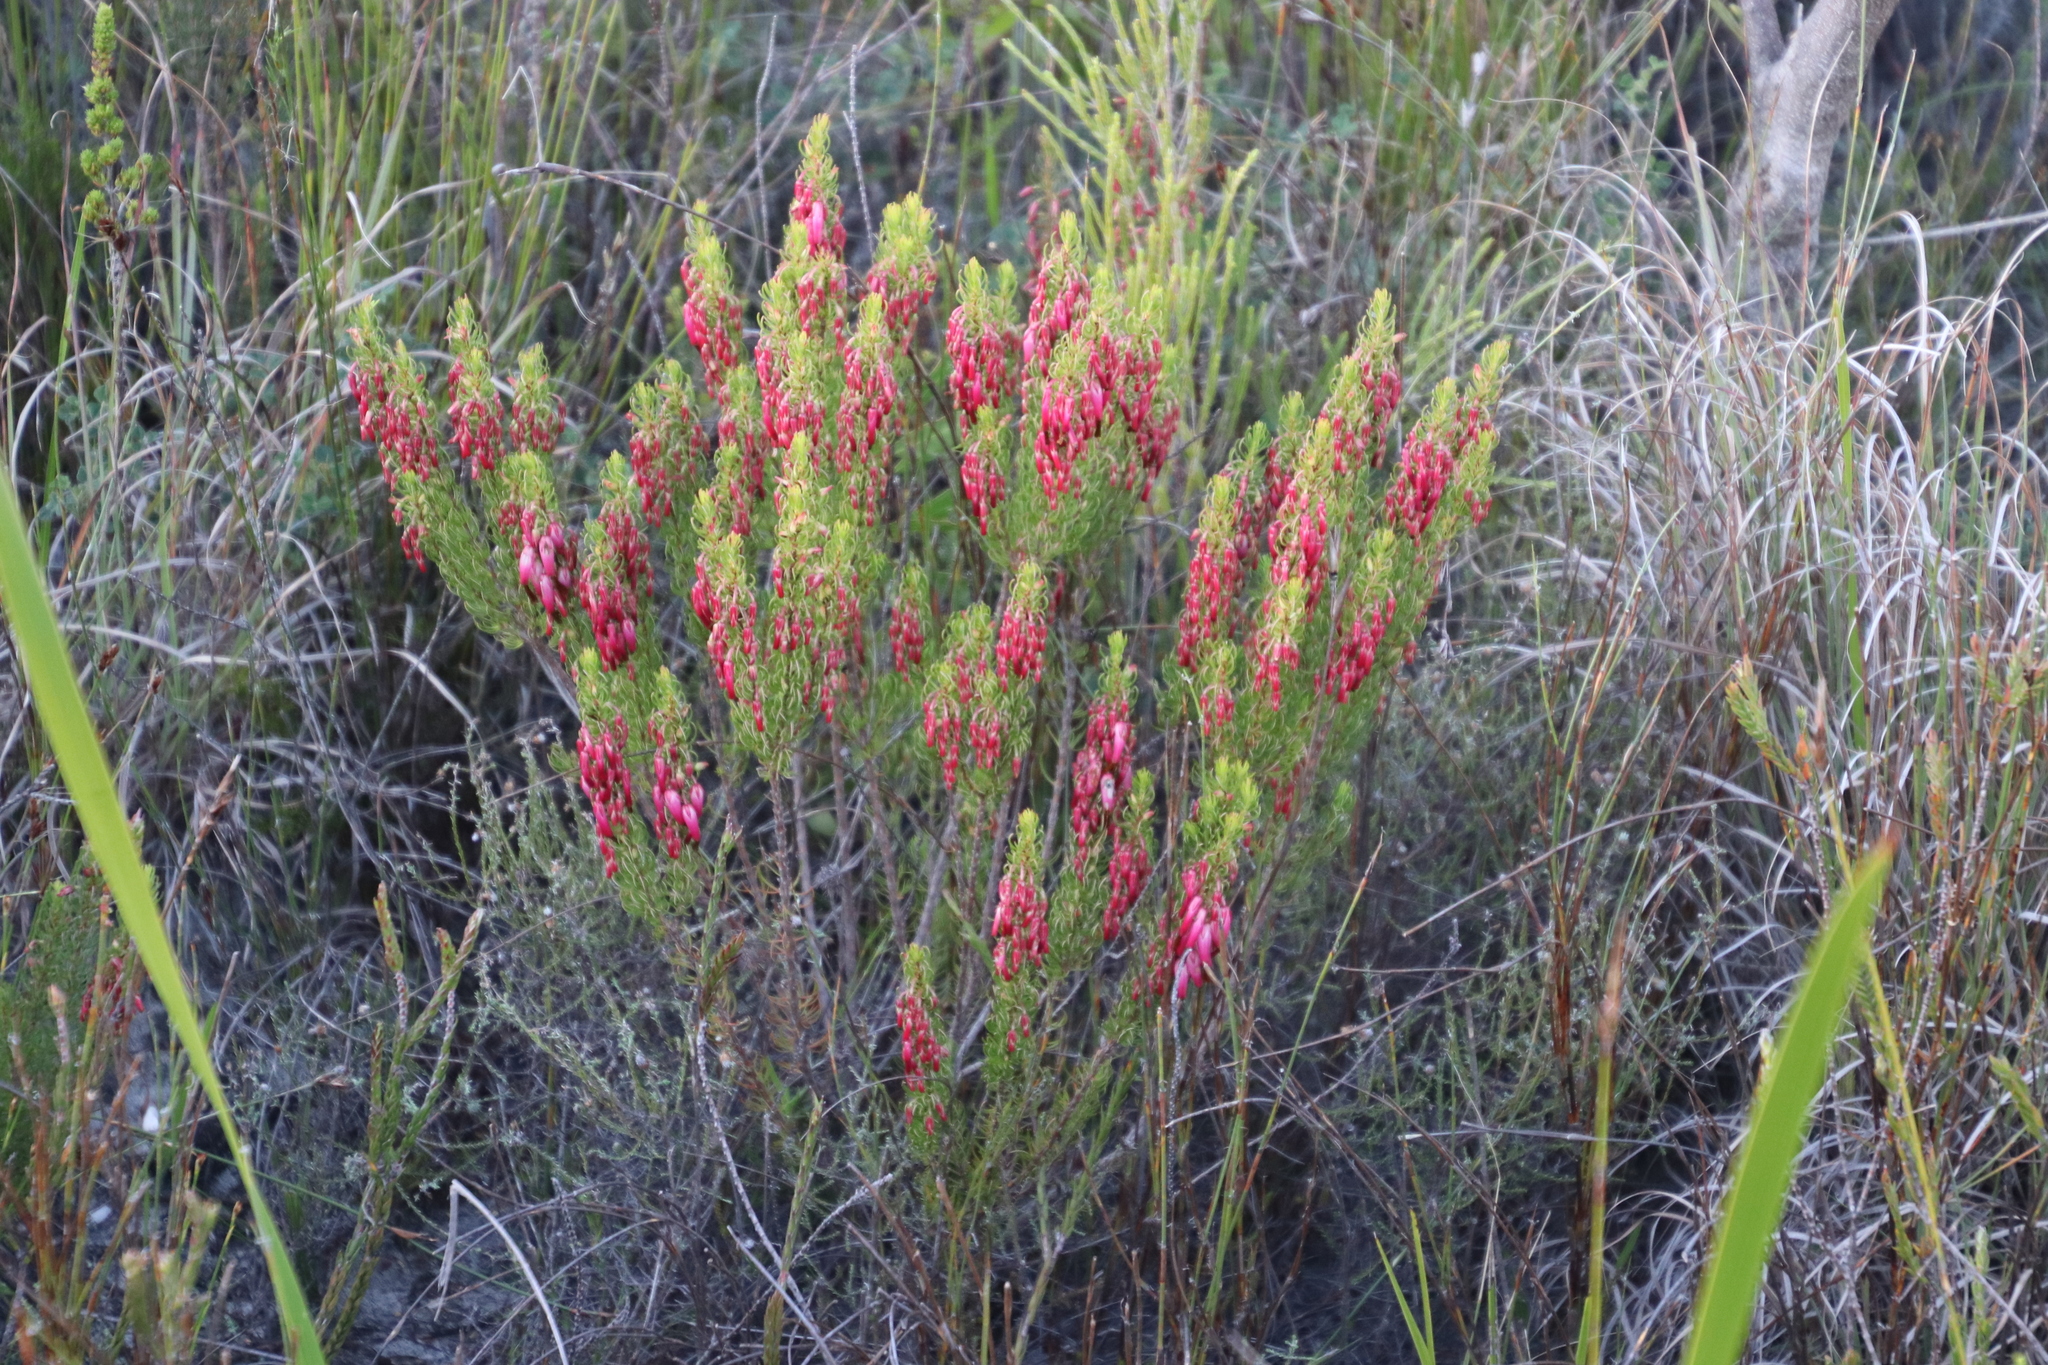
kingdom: Plantae
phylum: Tracheophyta
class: Magnoliopsida
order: Ericales
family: Ericaceae
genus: Erica
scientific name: Erica plukenetii
